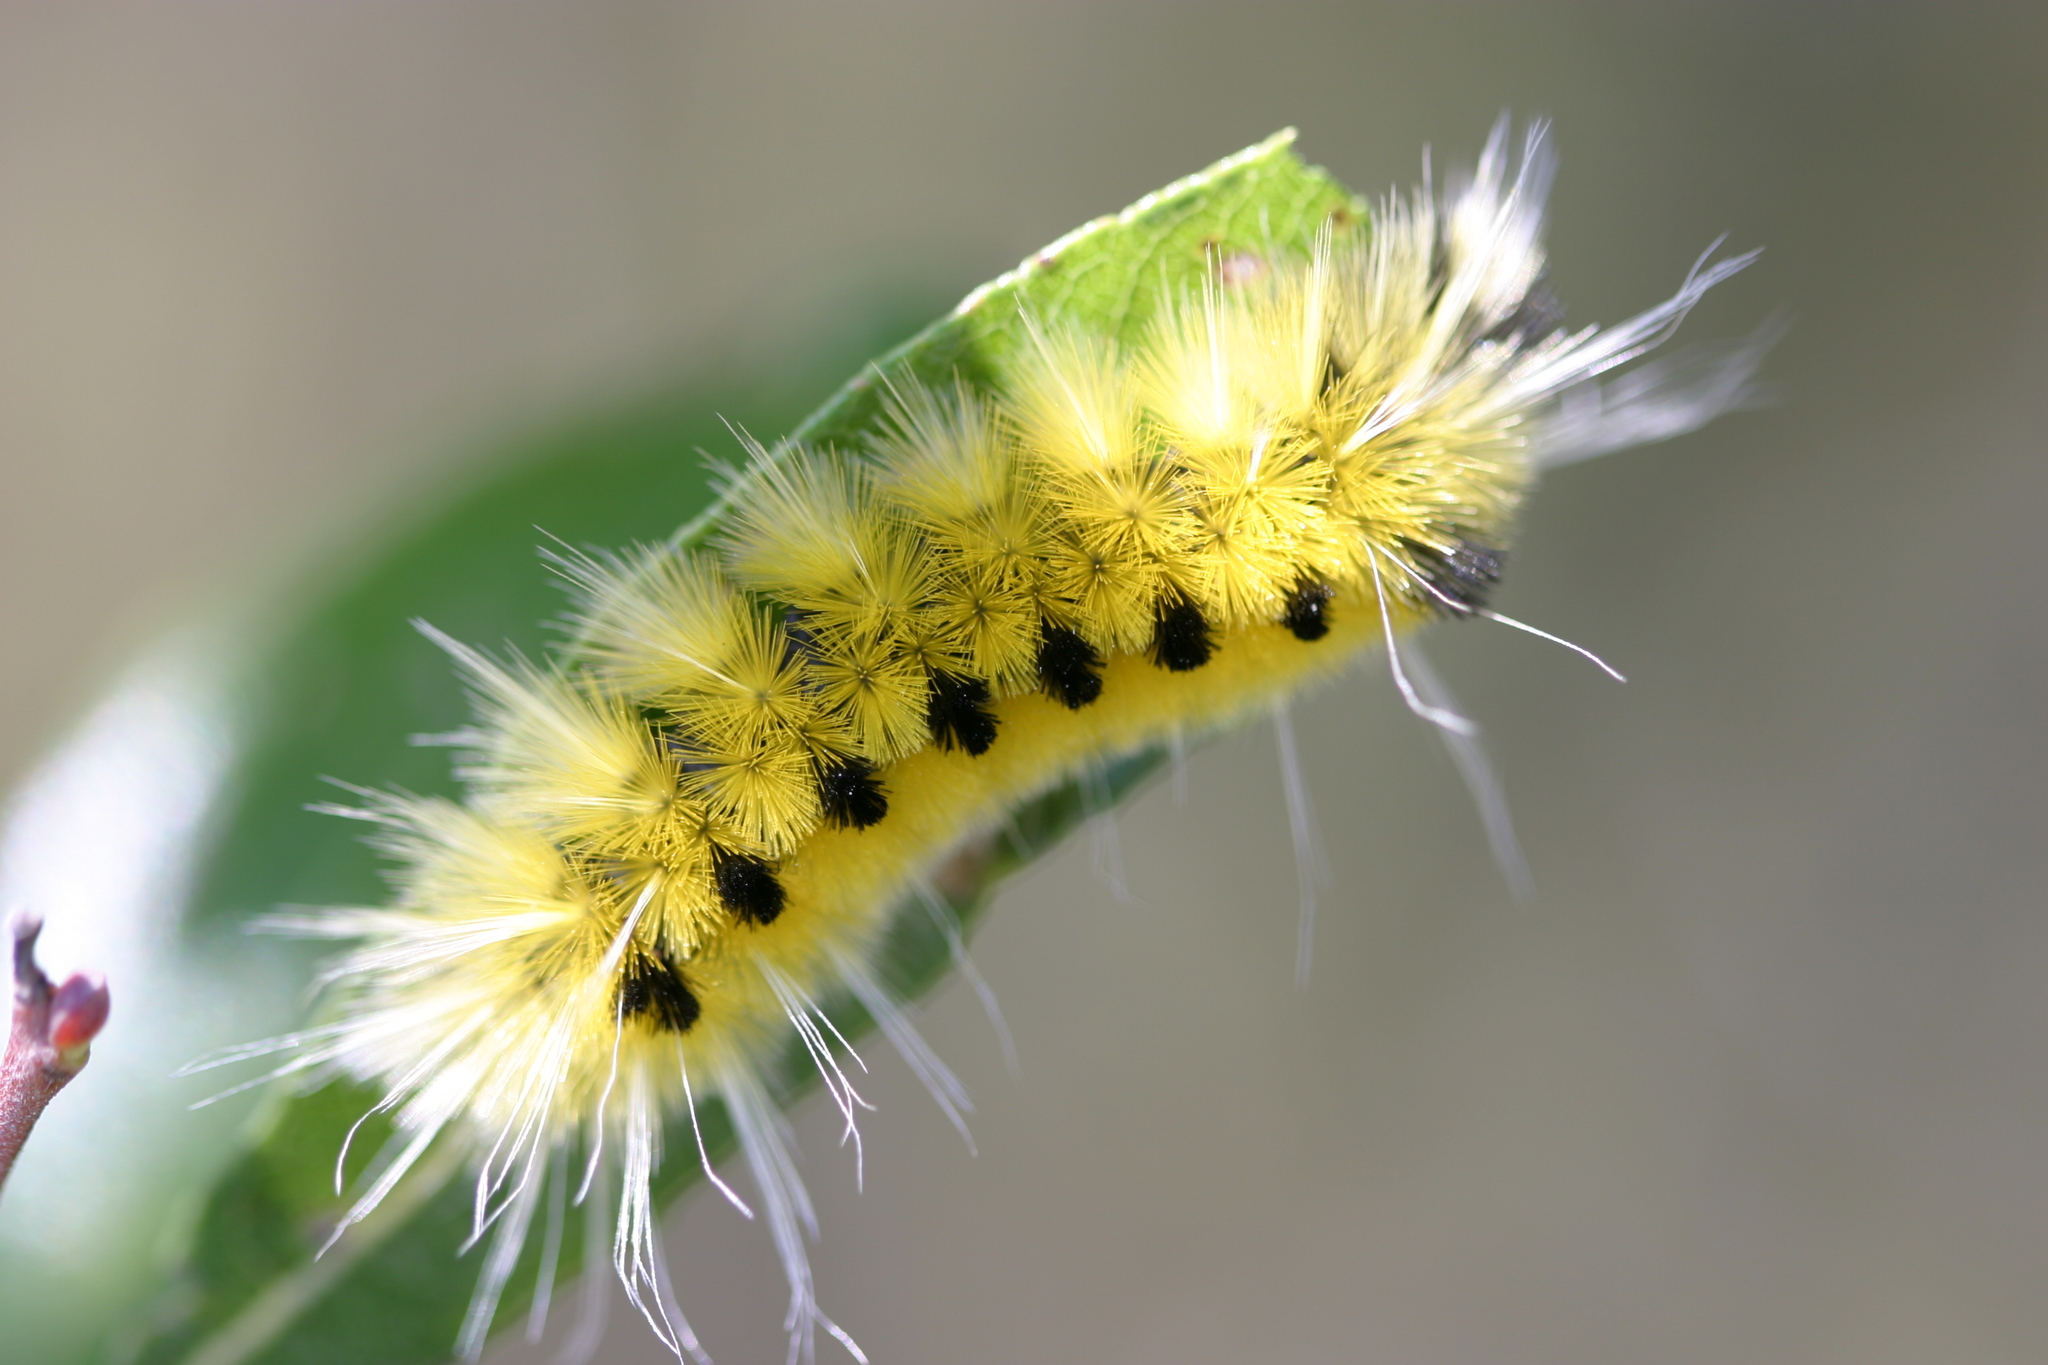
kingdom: Animalia
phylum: Arthropoda
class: Insecta
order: Lepidoptera
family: Erebidae
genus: Lophocampa
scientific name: Lophocampa maculata
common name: Spotted tussock moth
